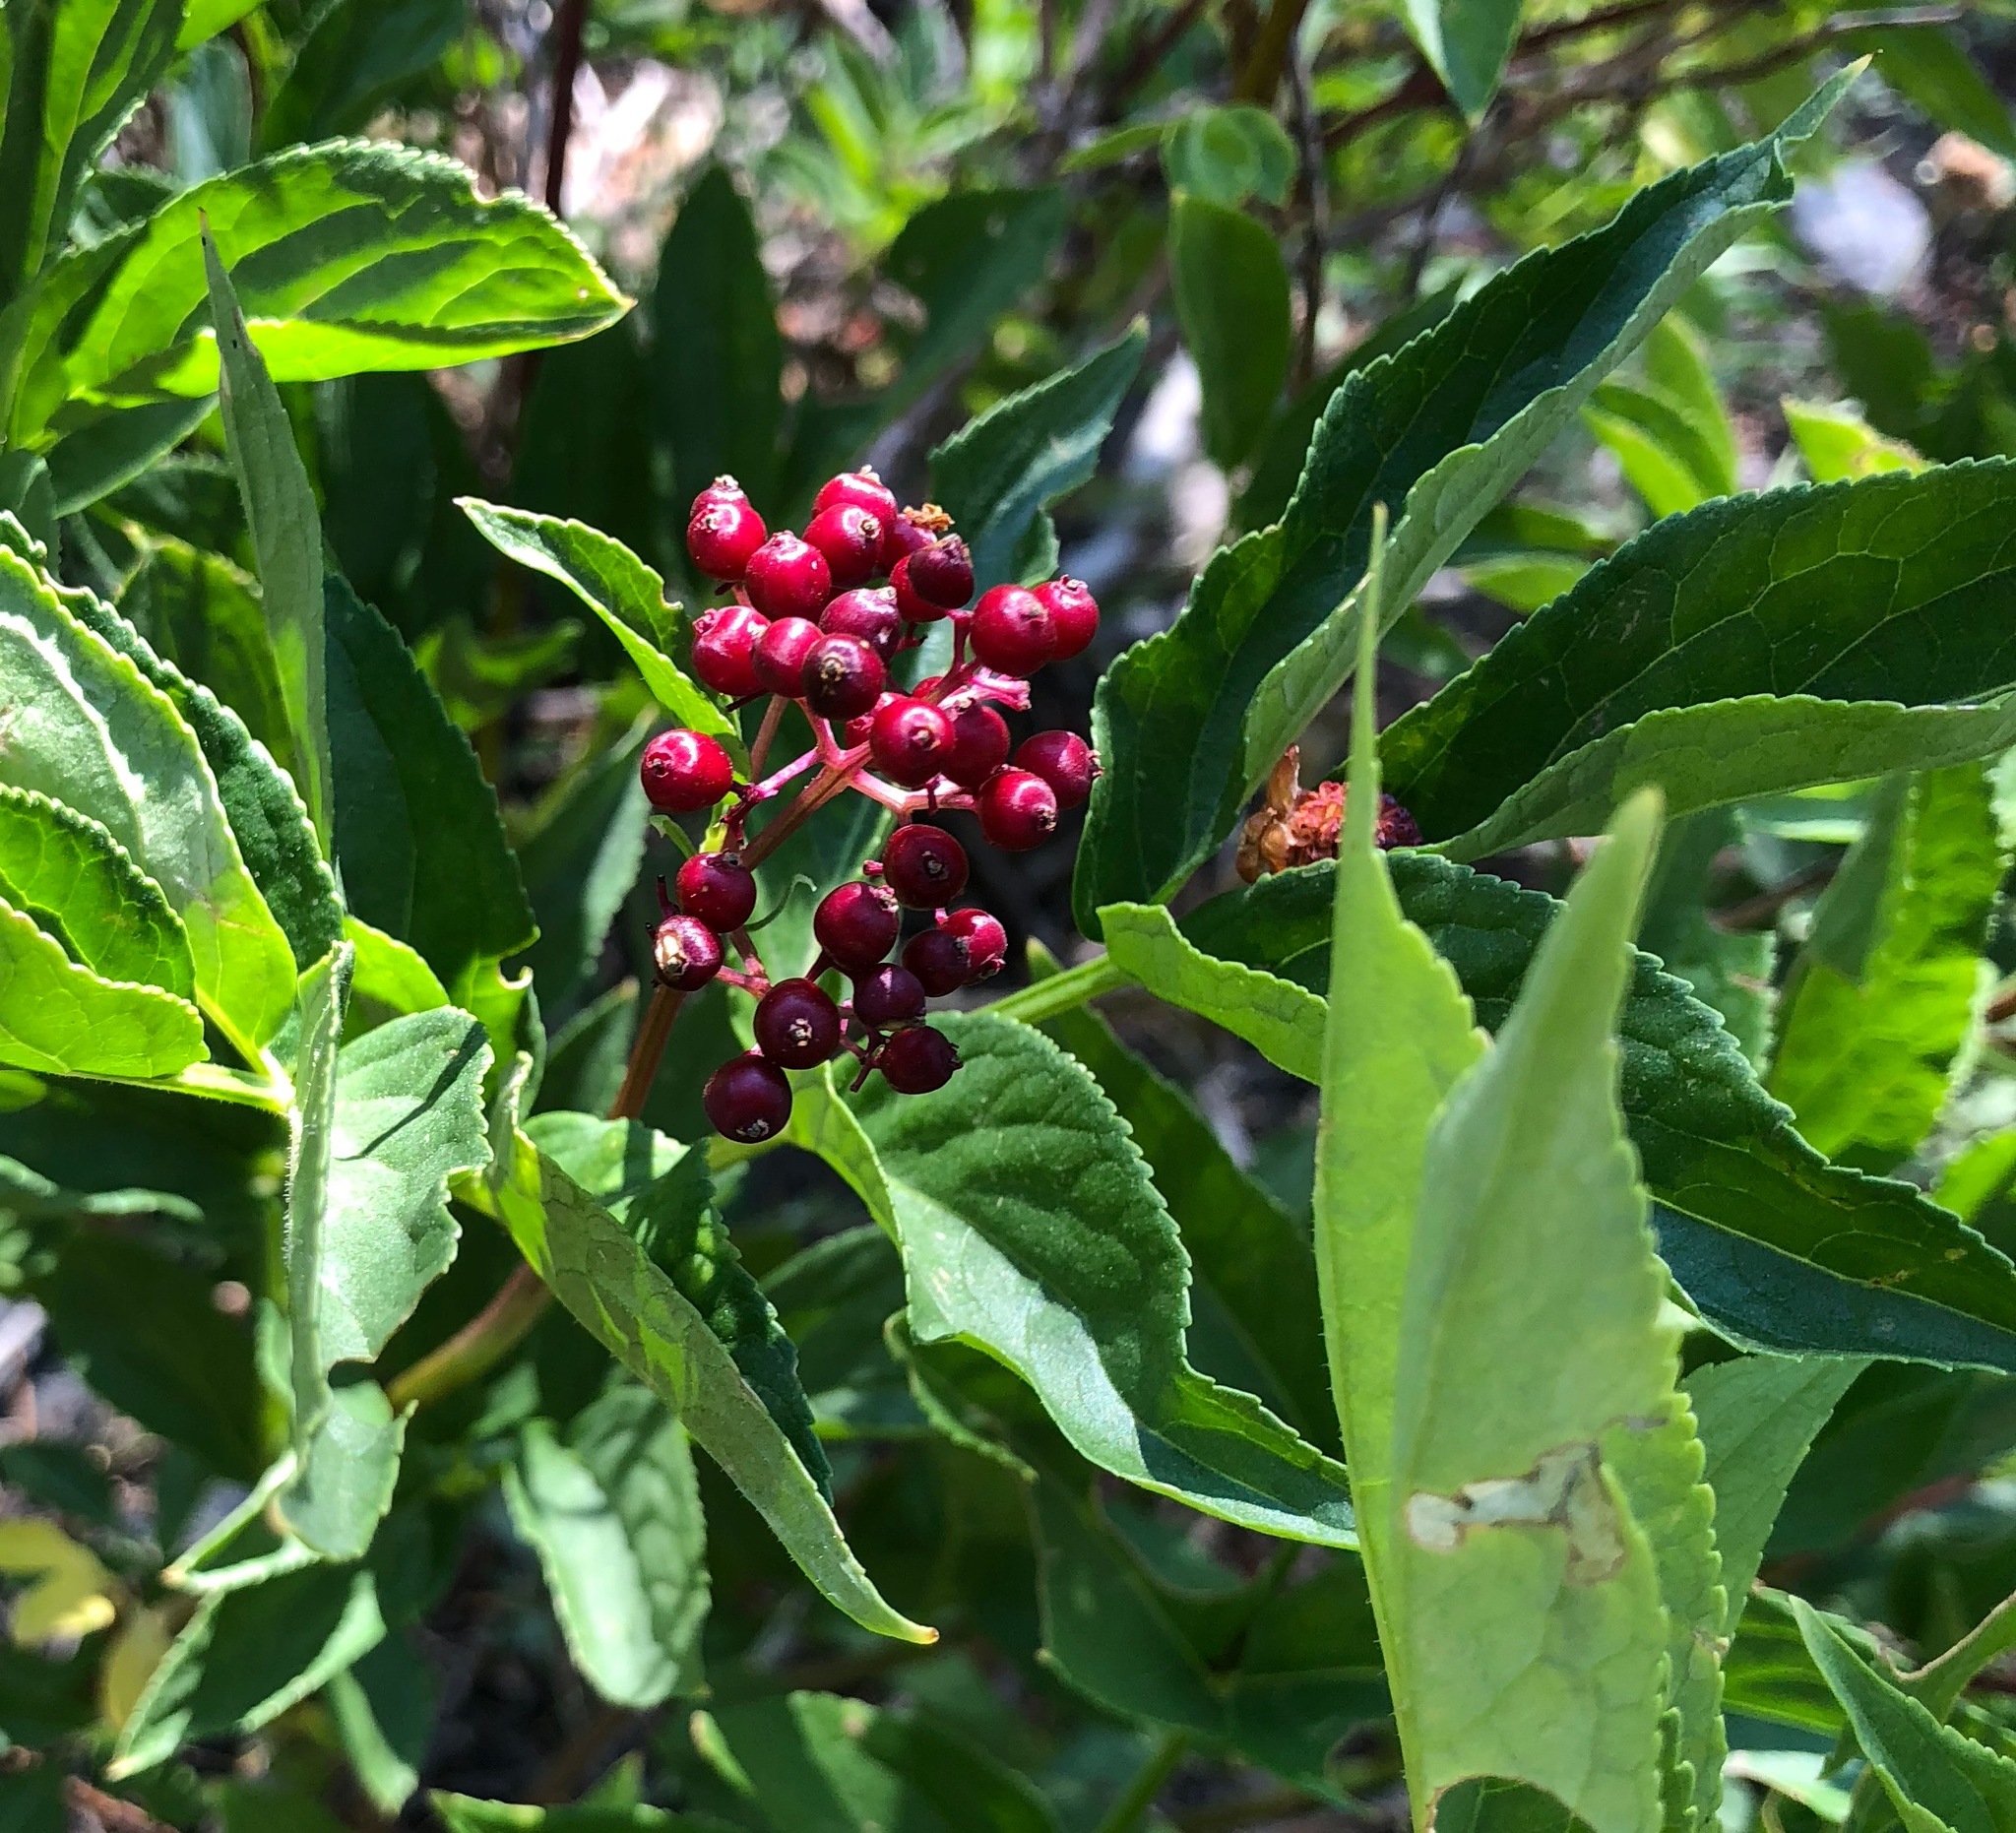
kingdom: Plantae
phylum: Tracheophyta
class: Magnoliopsida
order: Dipsacales
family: Viburnaceae
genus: Sambucus
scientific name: Sambucus racemosa
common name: Red-berried elder
